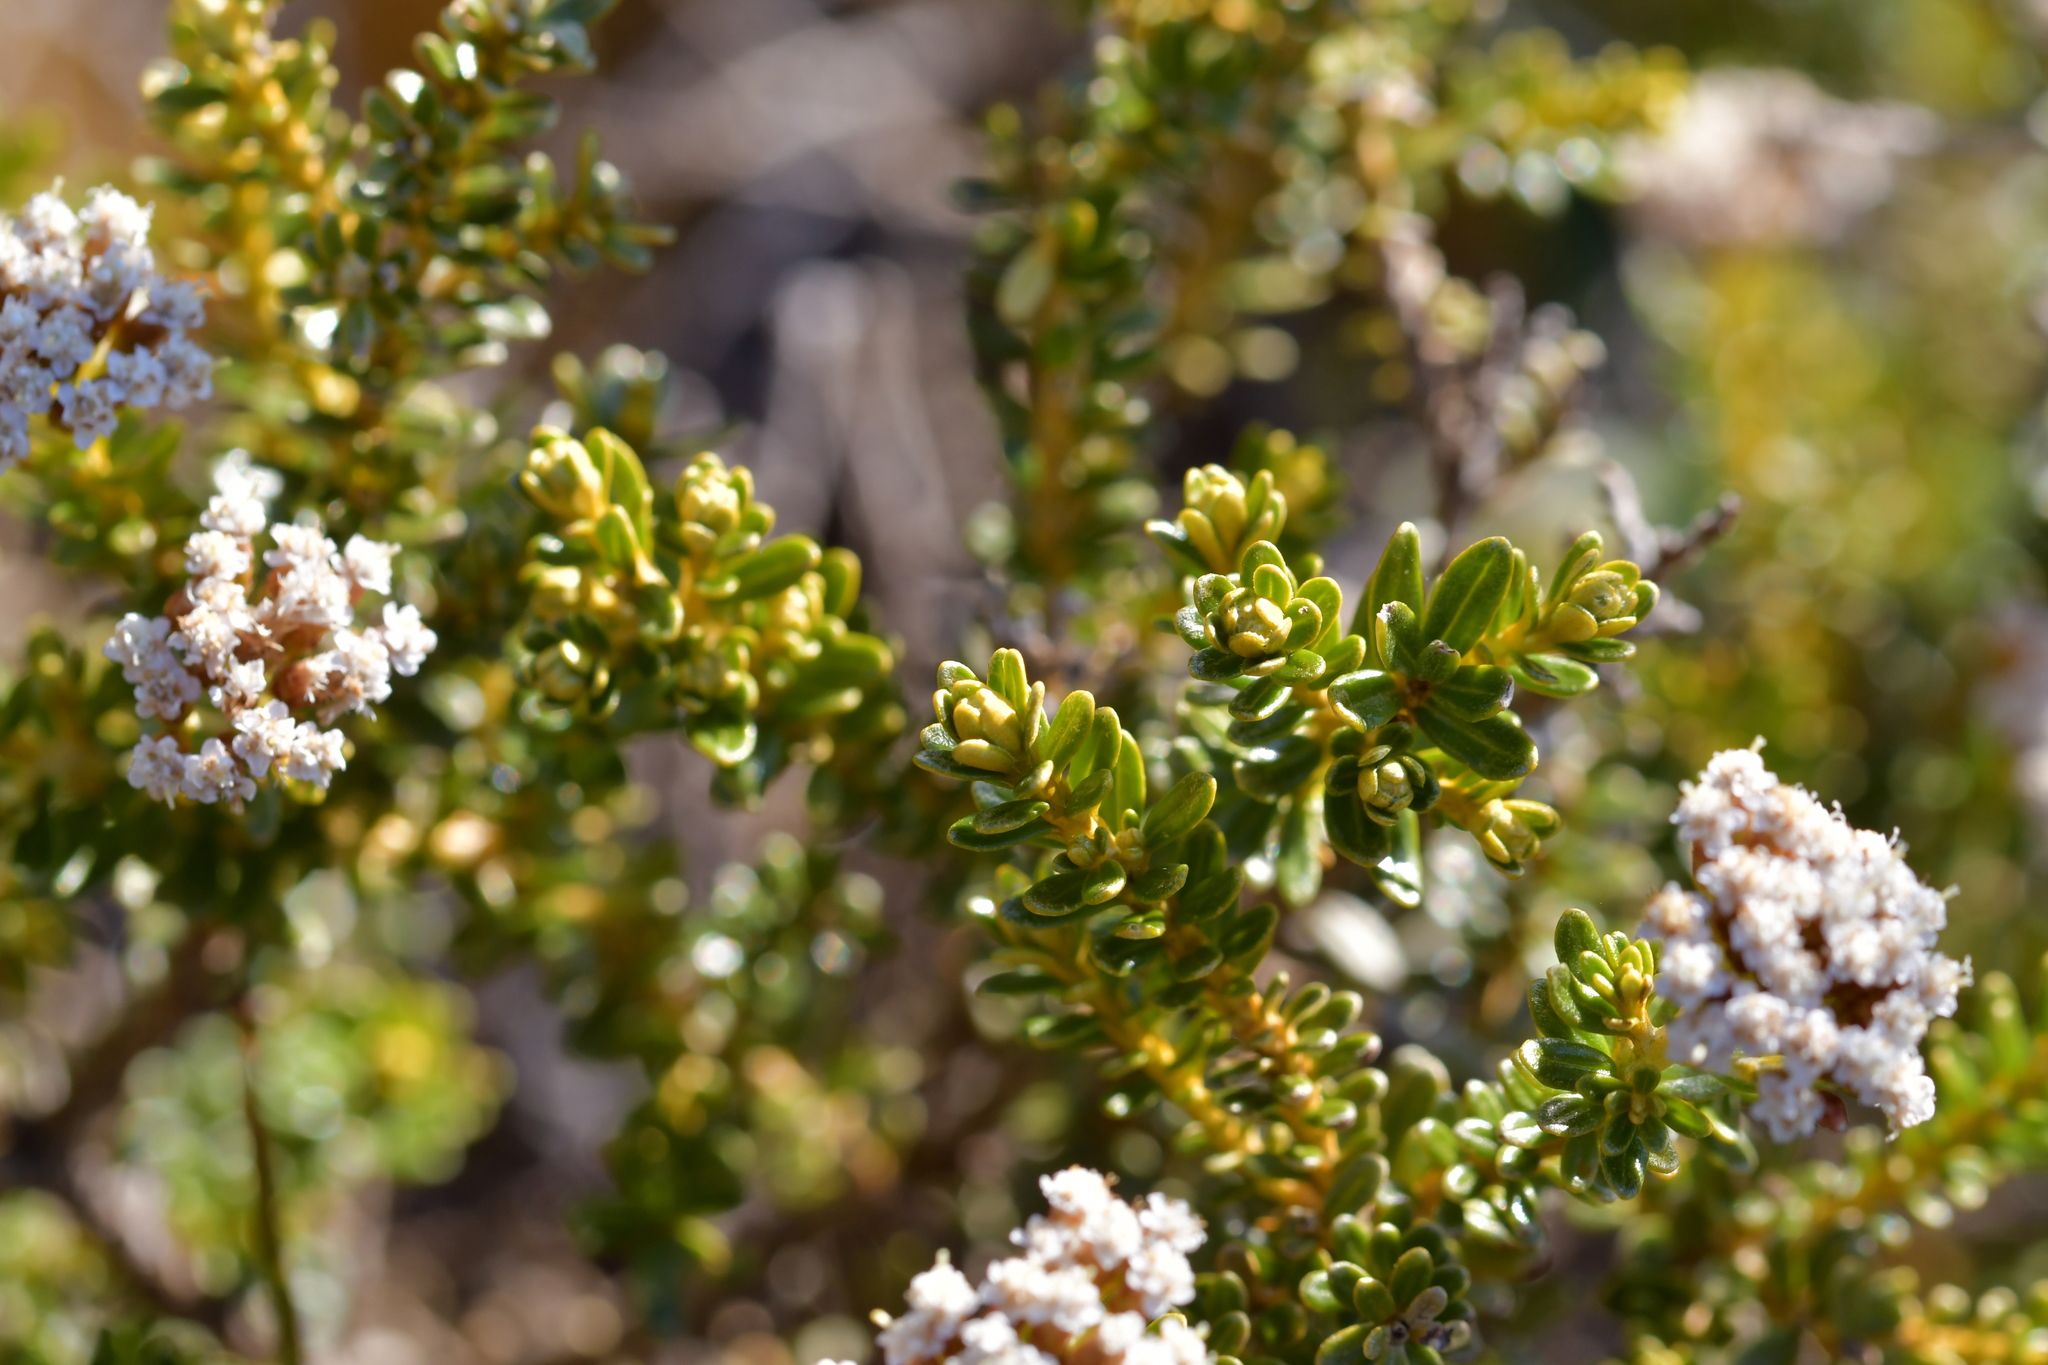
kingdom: Plantae
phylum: Tracheophyta
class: Magnoliopsida
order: Asterales
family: Asteraceae
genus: Ozothamnus
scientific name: Ozothamnus leptophyllus
